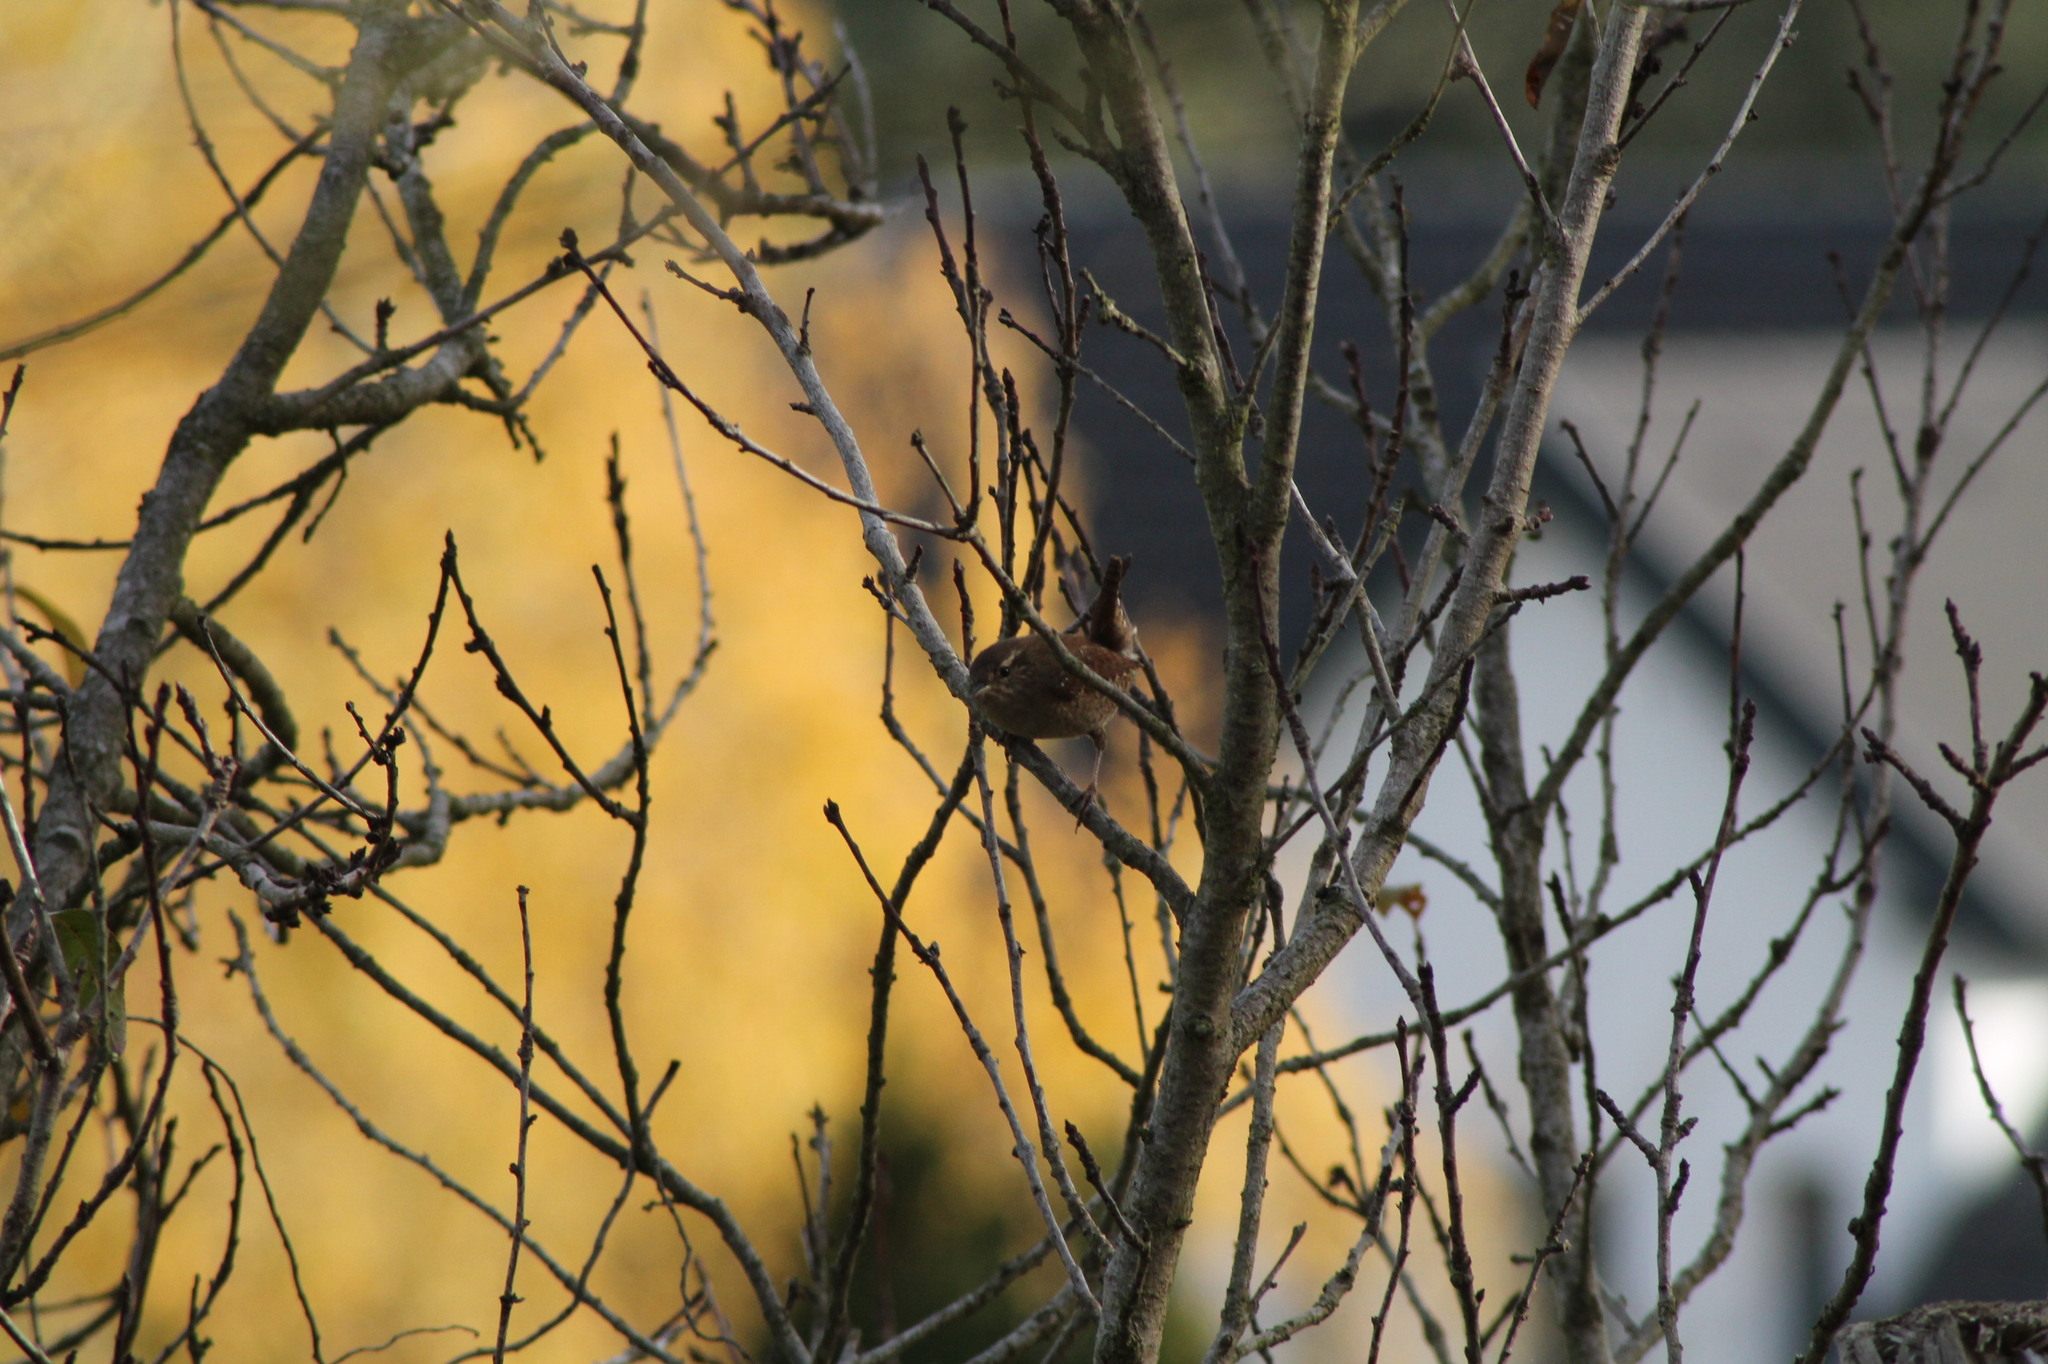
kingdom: Animalia
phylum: Chordata
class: Aves
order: Passeriformes
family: Troglodytidae
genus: Troglodytes
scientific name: Troglodytes troglodytes
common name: Eurasian wren
